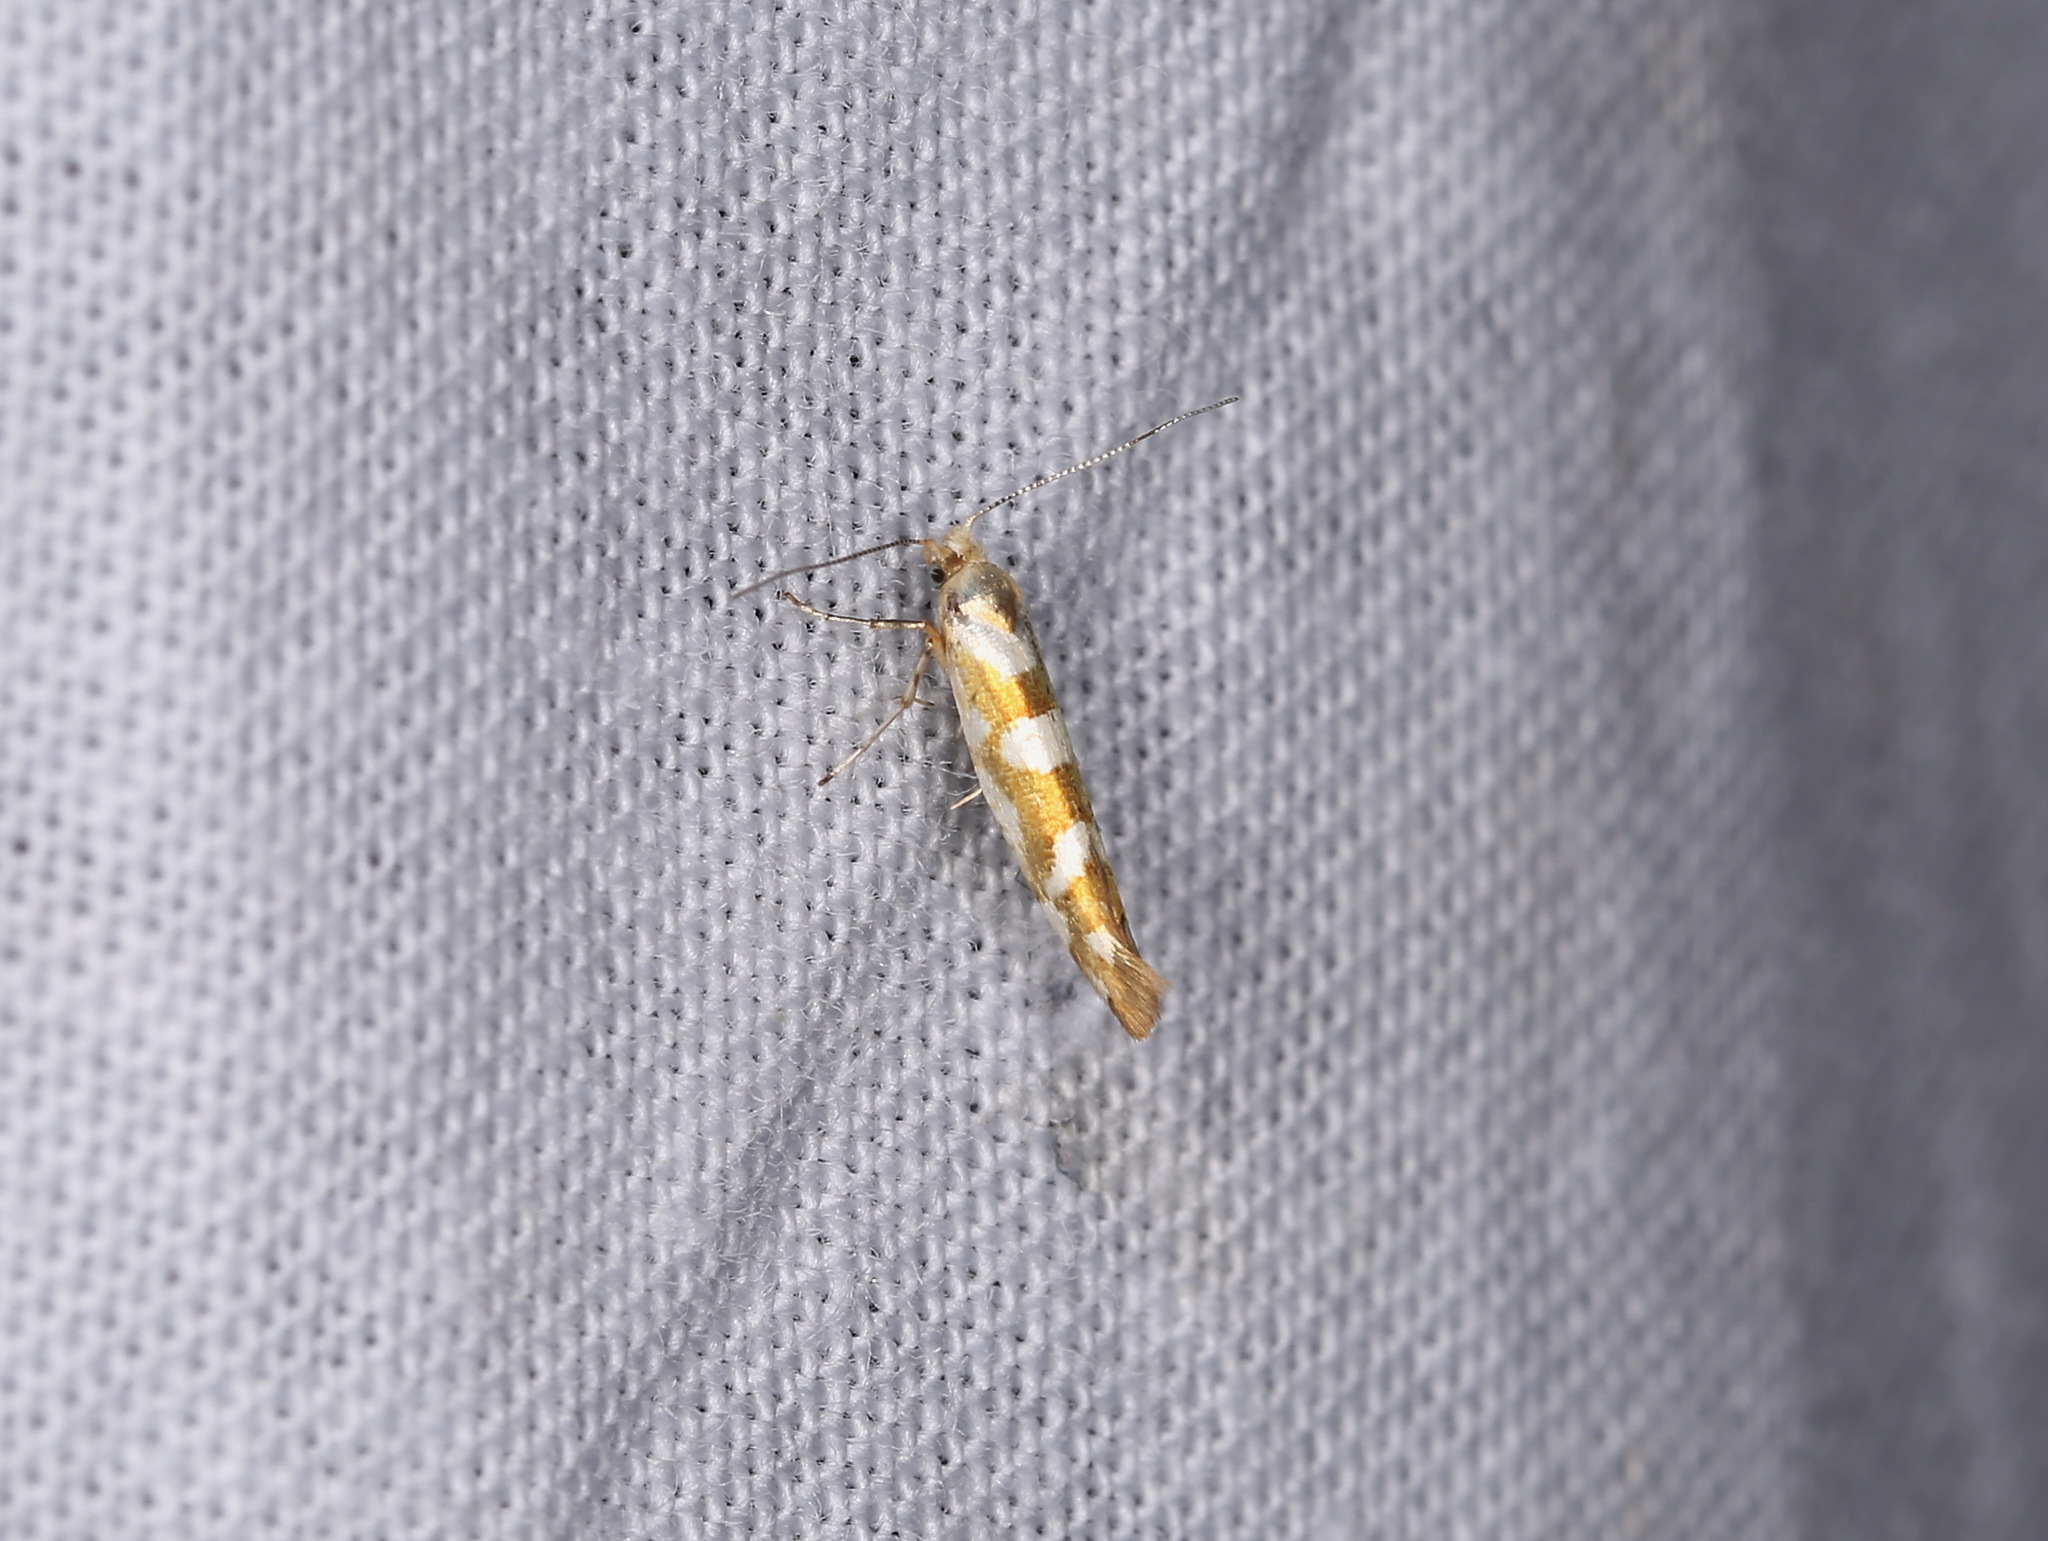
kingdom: Animalia
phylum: Arthropoda
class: Insecta
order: Lepidoptera
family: Argyresthiidae
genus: Argyresthia
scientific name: Argyresthia goedartella
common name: Golden argent
